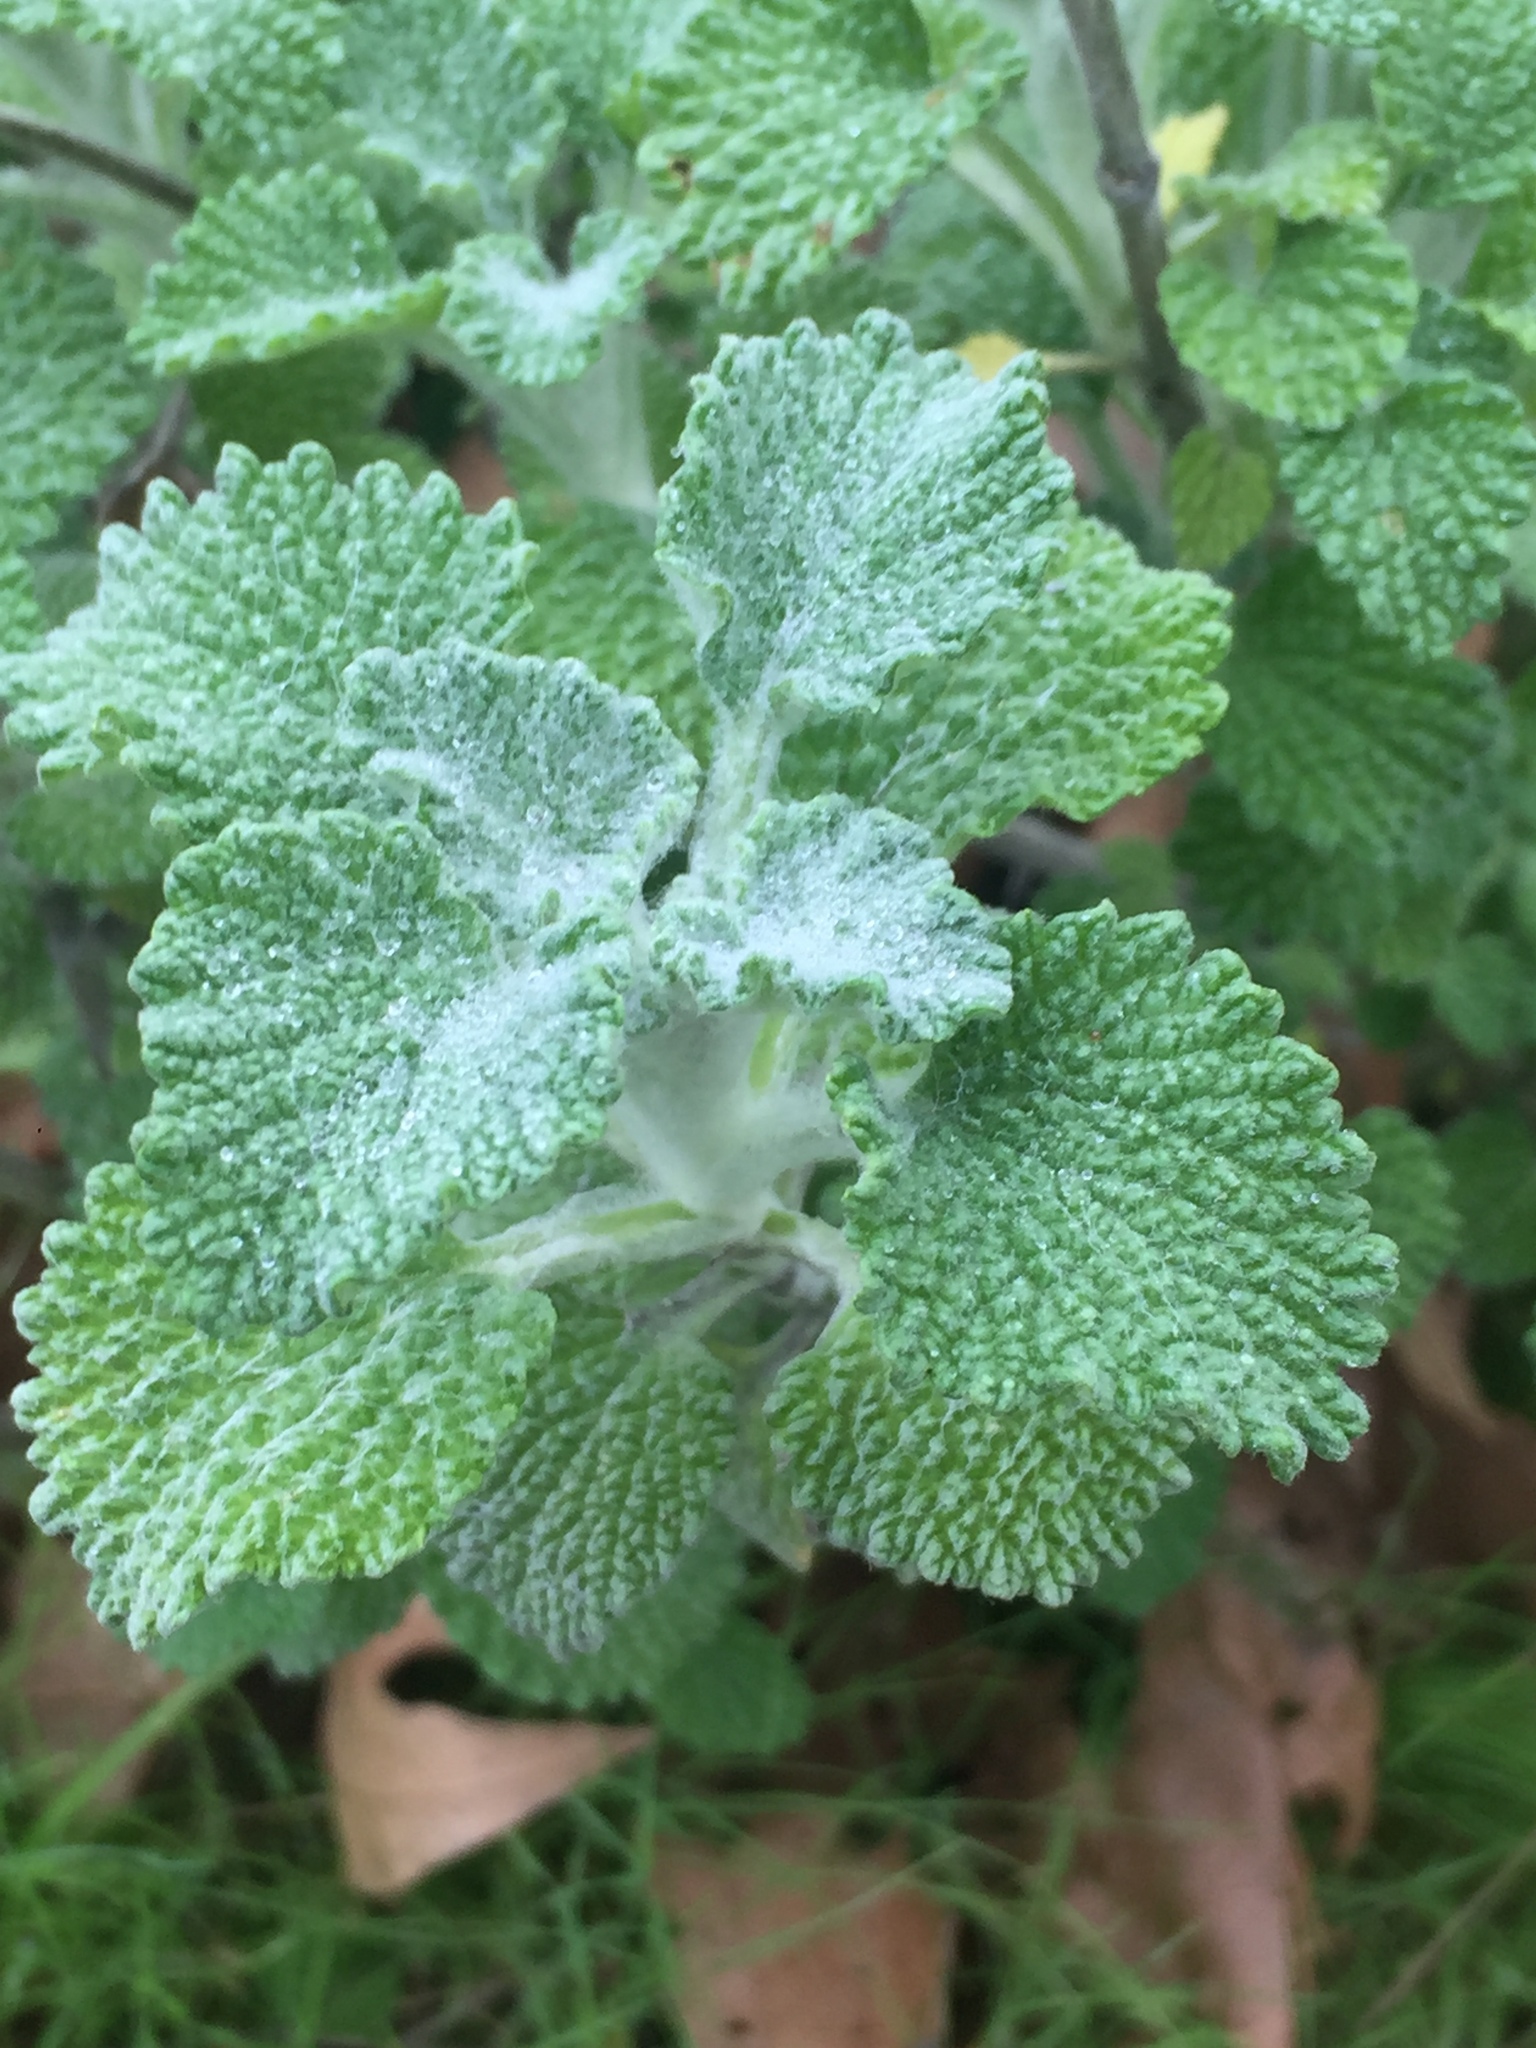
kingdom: Plantae
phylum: Tracheophyta
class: Magnoliopsida
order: Lamiales
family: Lamiaceae
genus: Marrubium
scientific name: Marrubium vulgare
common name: Horehound
